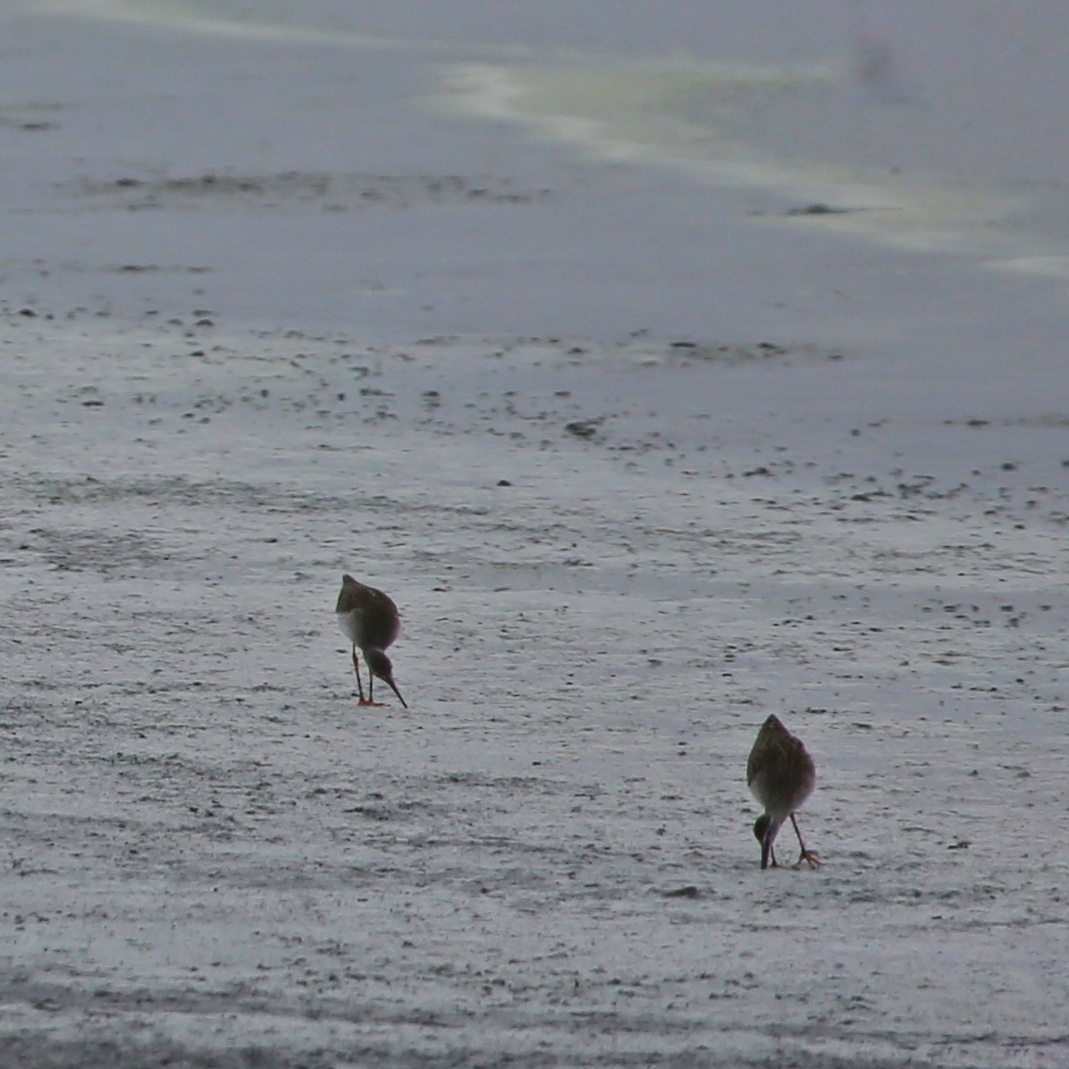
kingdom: Animalia
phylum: Chordata
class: Aves
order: Charadriiformes
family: Scolopacidae
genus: Tringa
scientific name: Tringa totanus
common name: Common redshank
